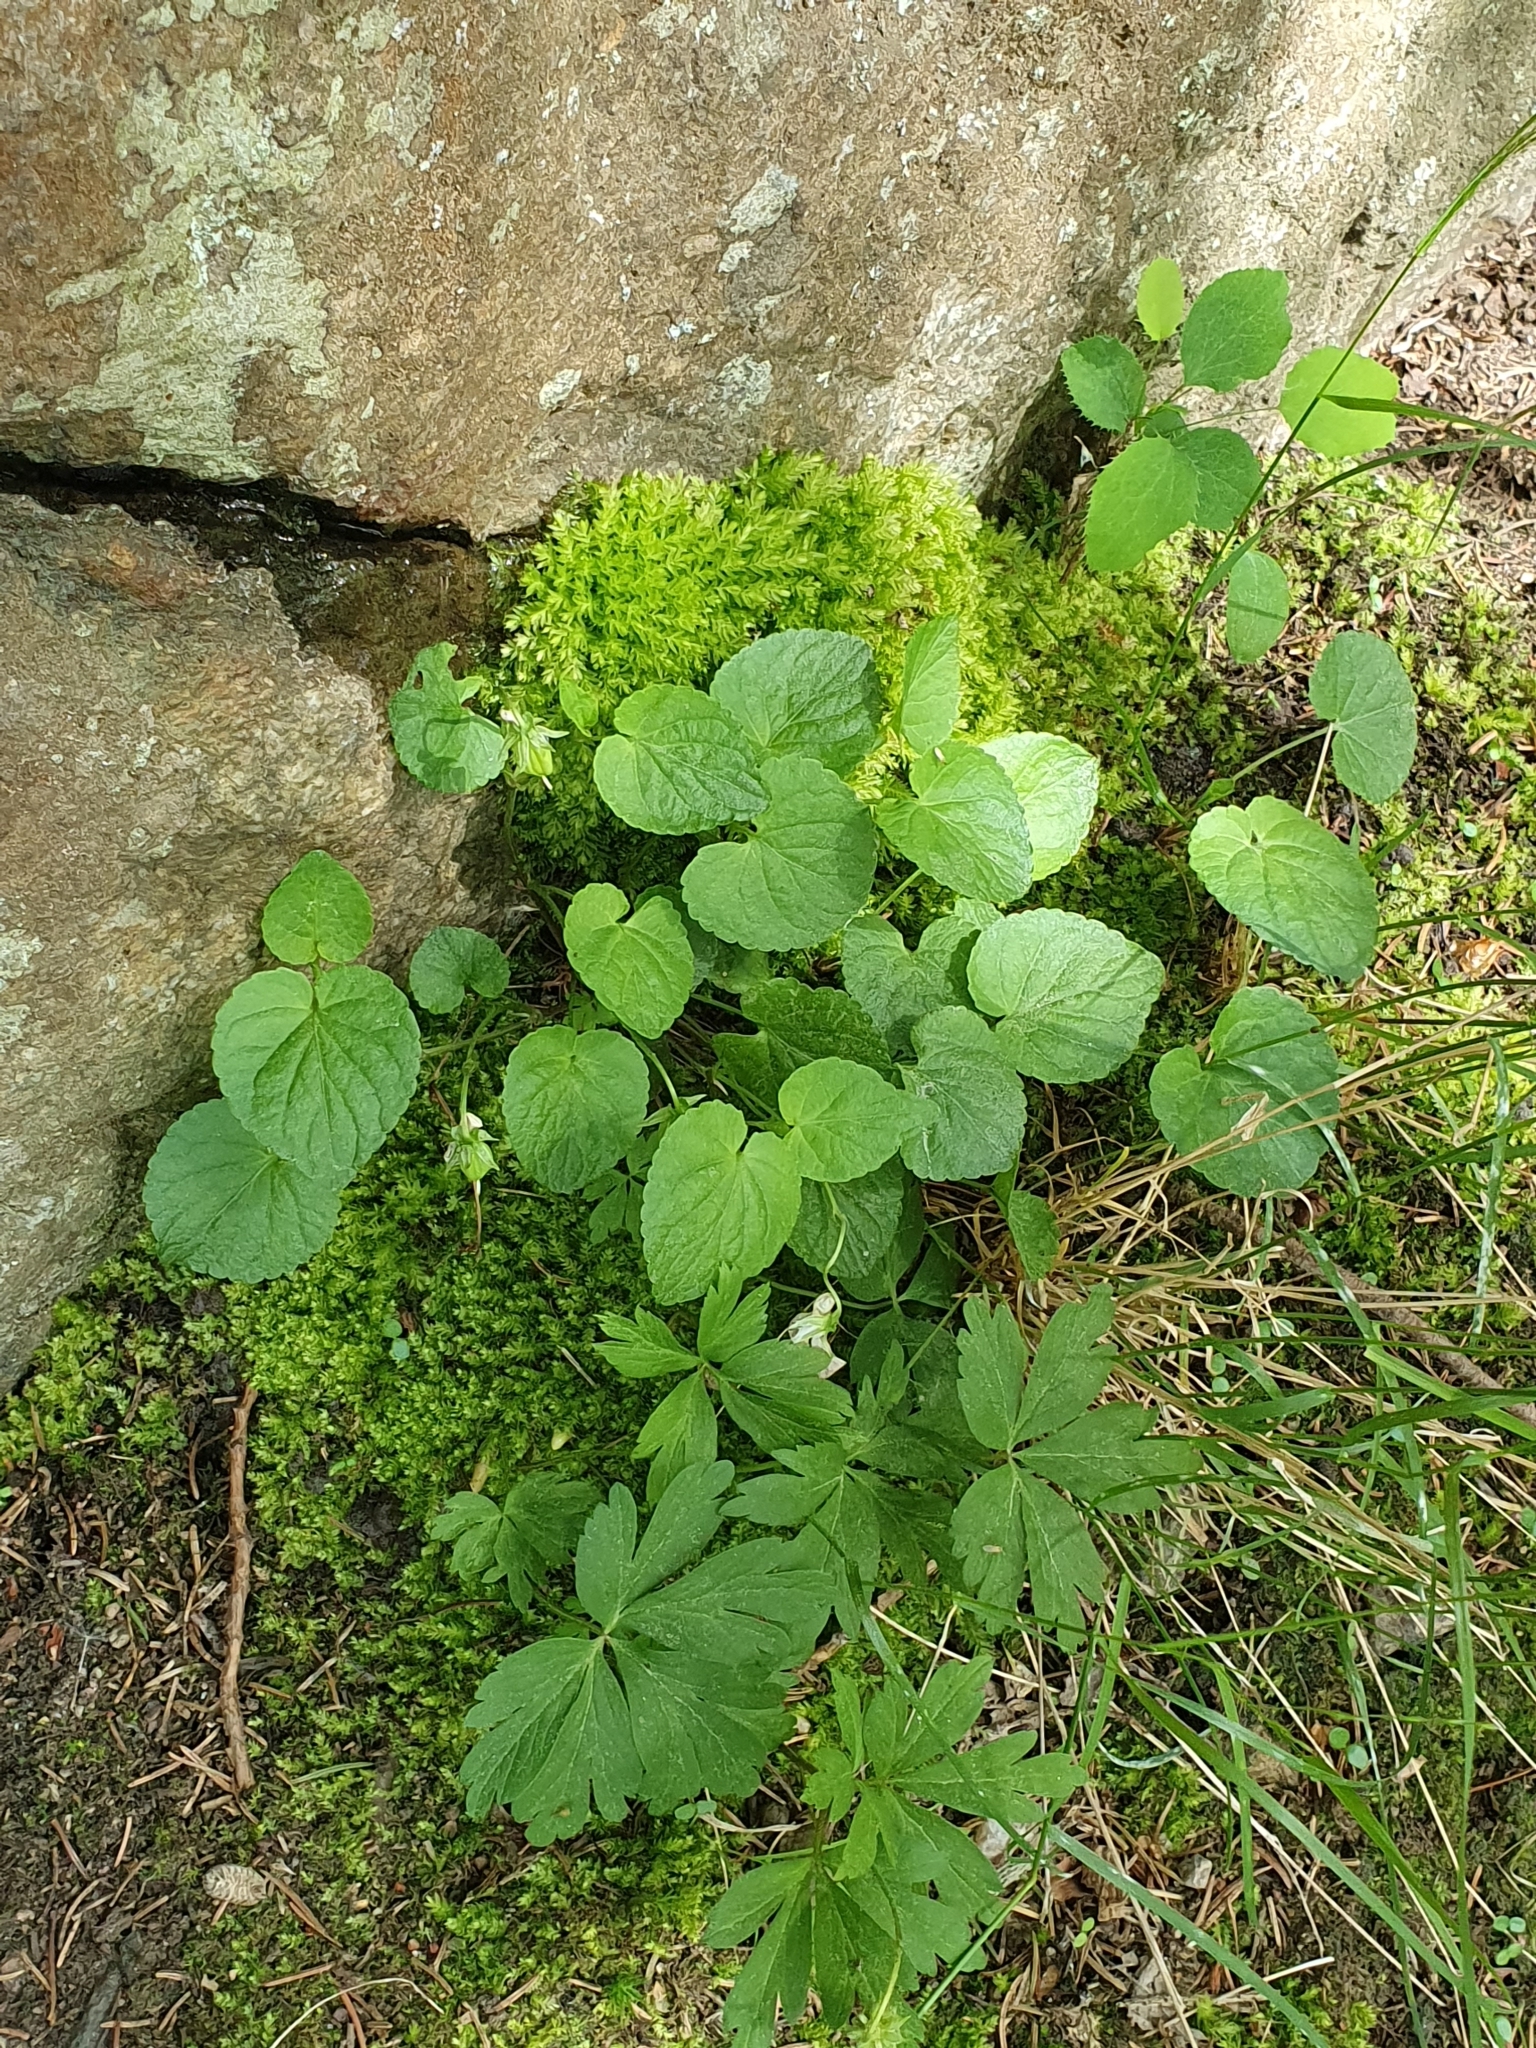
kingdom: Plantae
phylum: Bryophyta
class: Bryopsida
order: Bryales
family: Mniaceae
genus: Mnium
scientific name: Mnium hornum
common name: Swan's-neck leafy moss
